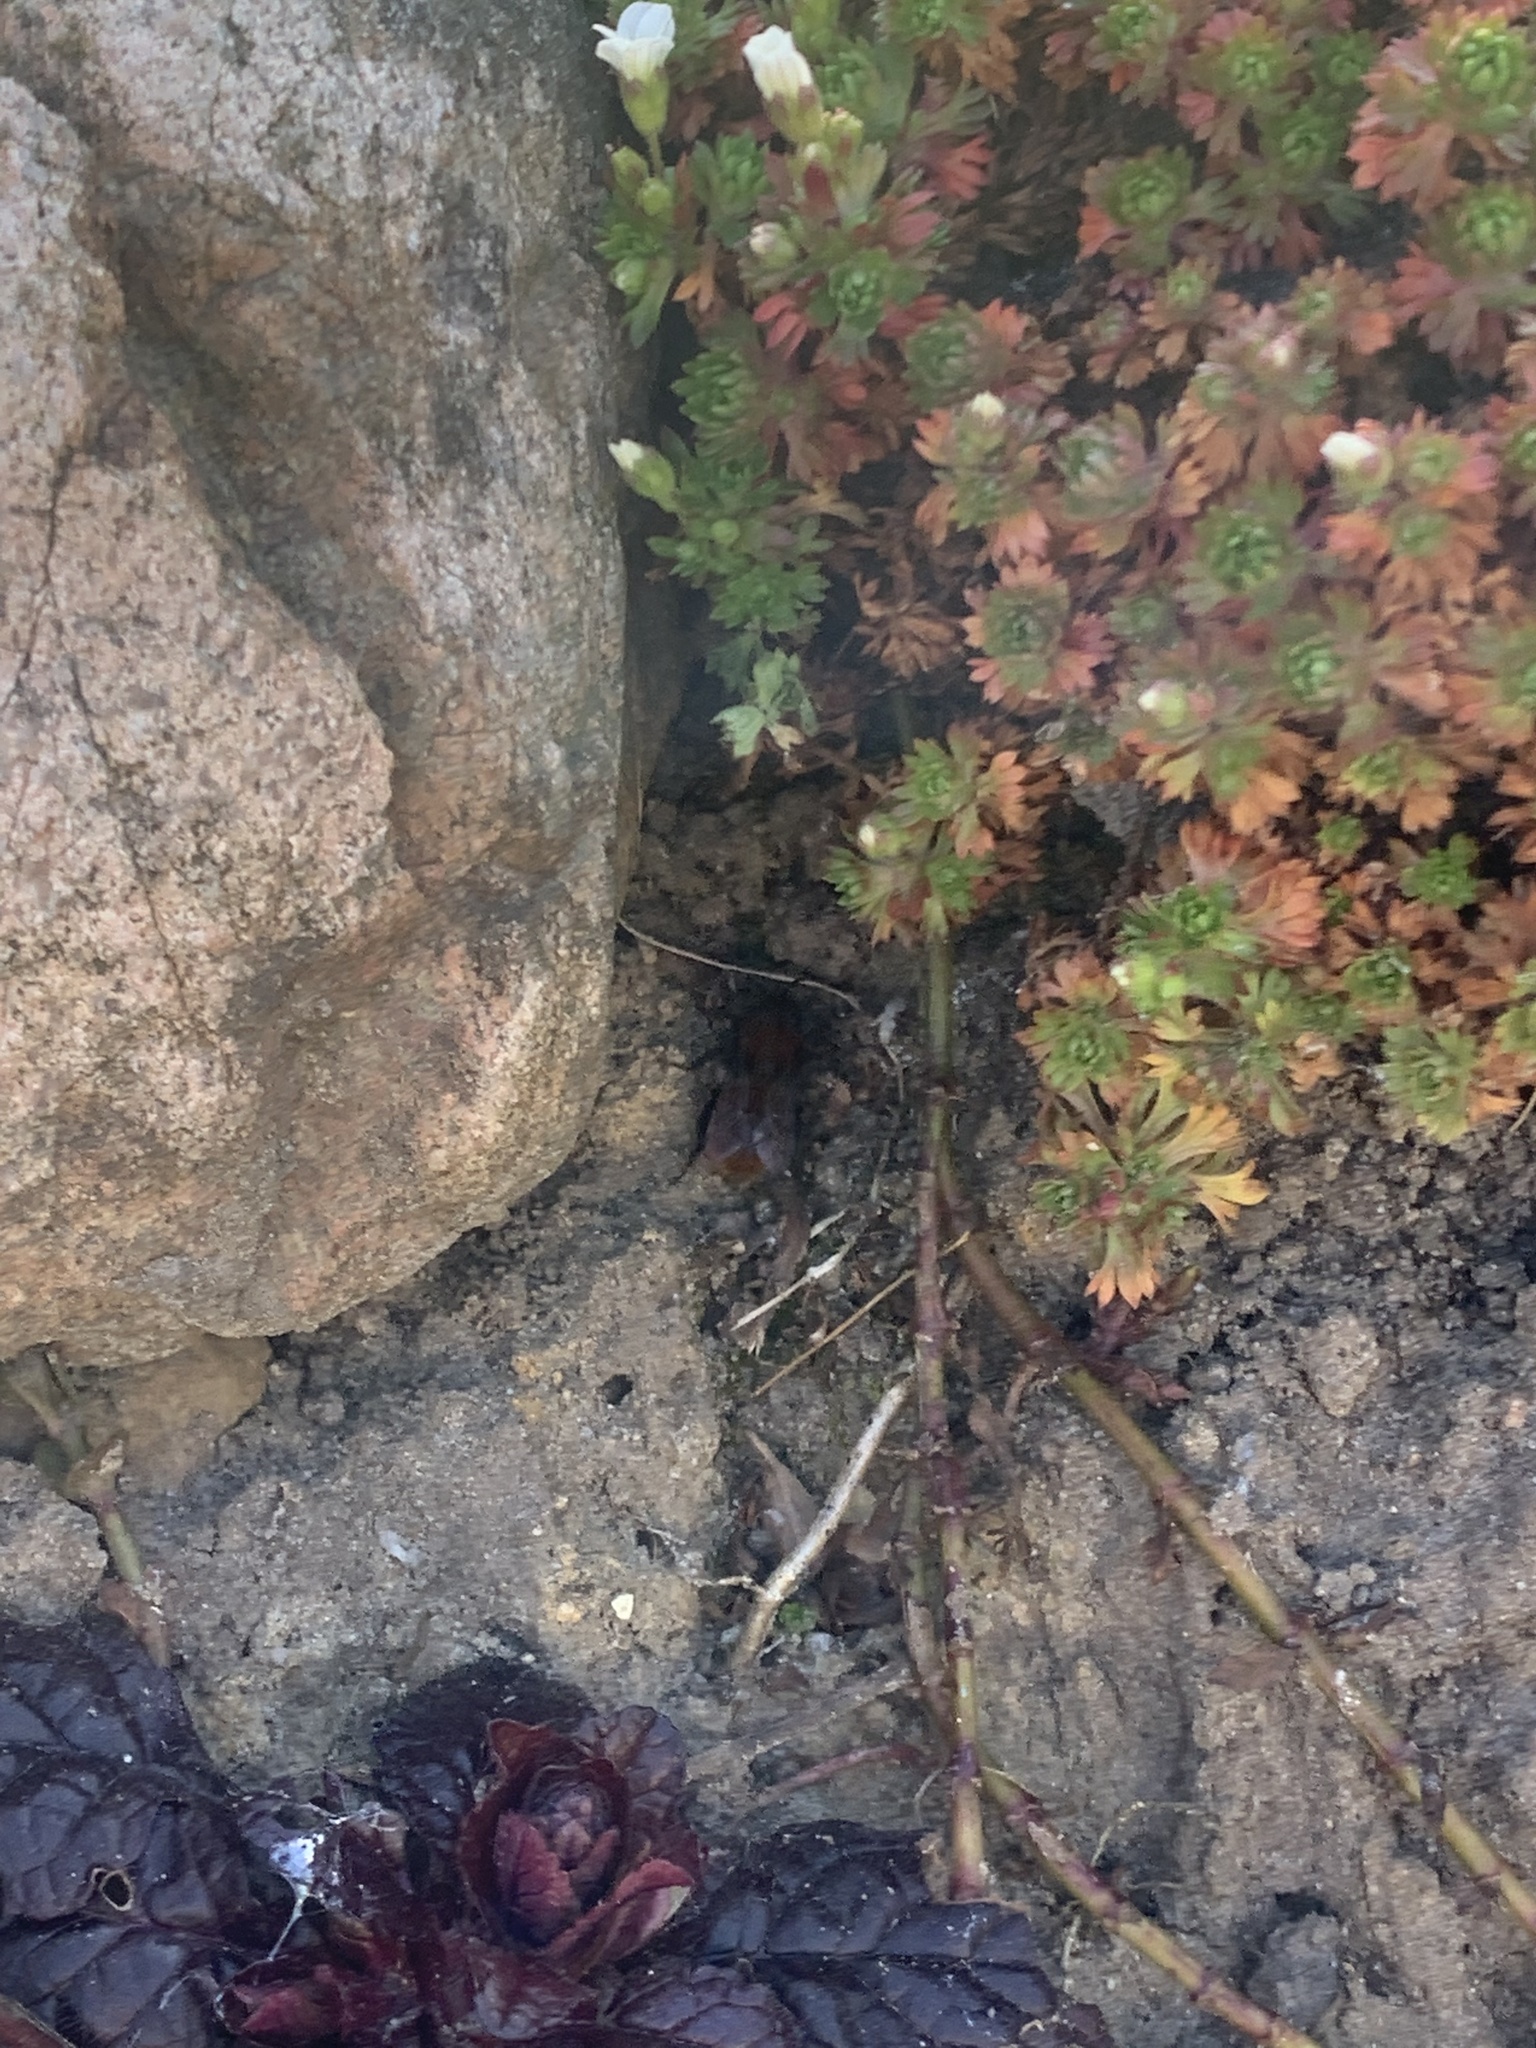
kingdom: Animalia
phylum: Arthropoda
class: Insecta
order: Hymenoptera
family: Andrenidae
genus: Andrena
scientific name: Andrena fulva
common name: Tawny mining bee
